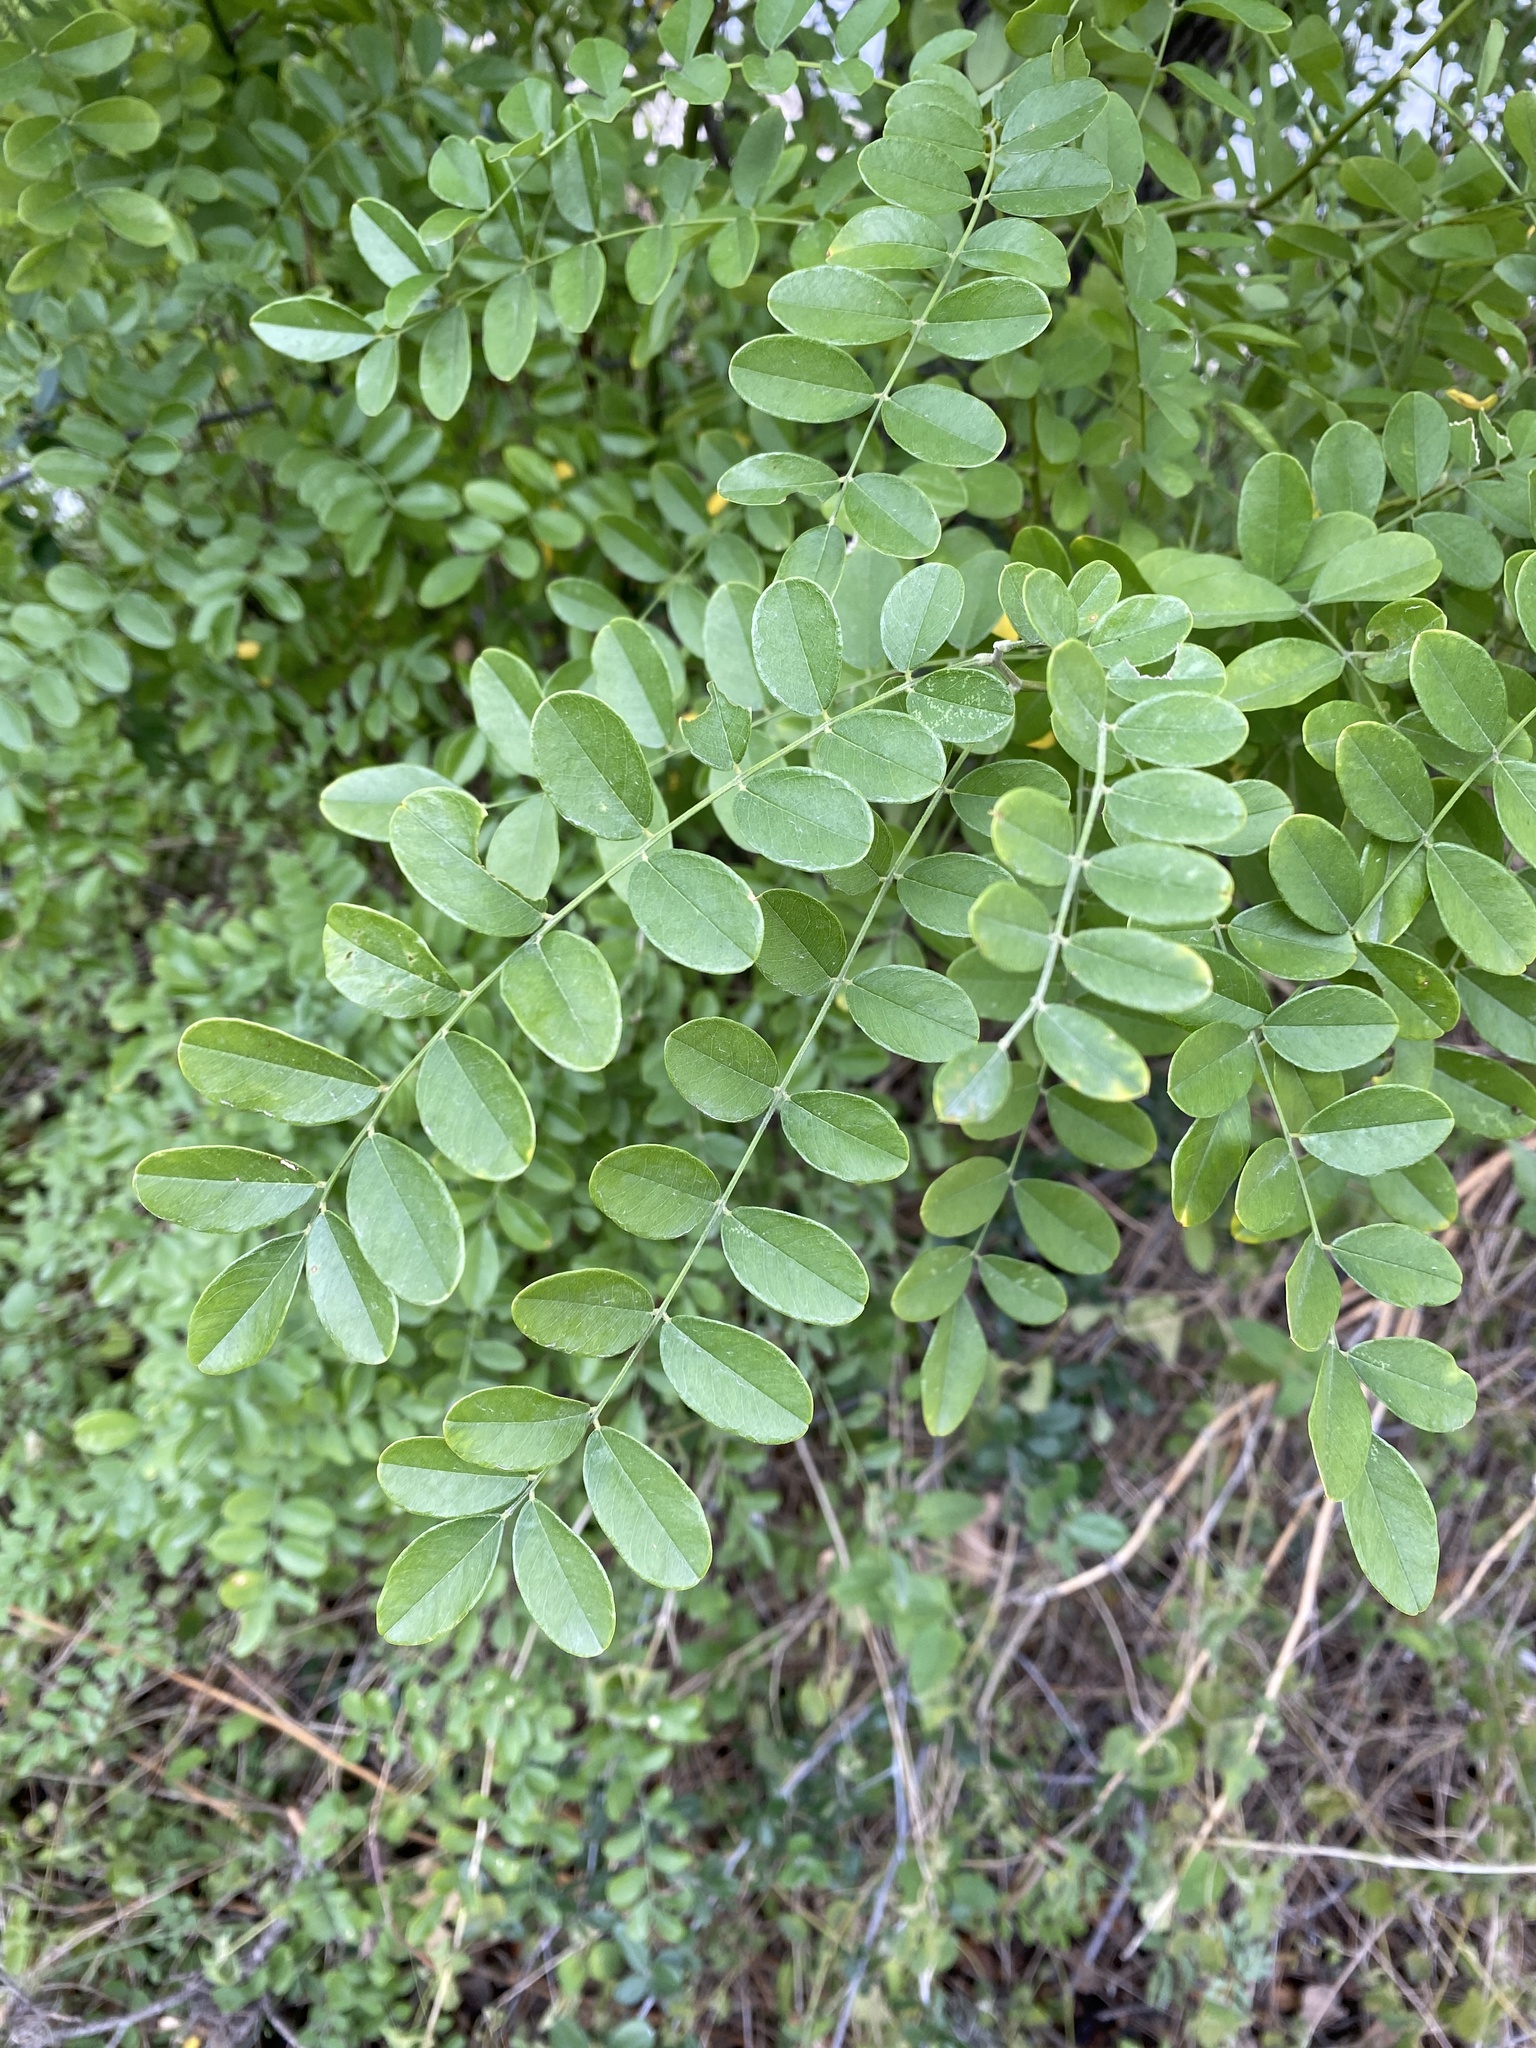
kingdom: Plantae
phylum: Tracheophyta
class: Magnoliopsida
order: Fabales
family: Fabaceae
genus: Styphnolobium
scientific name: Styphnolobium affine
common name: Texas sophora
